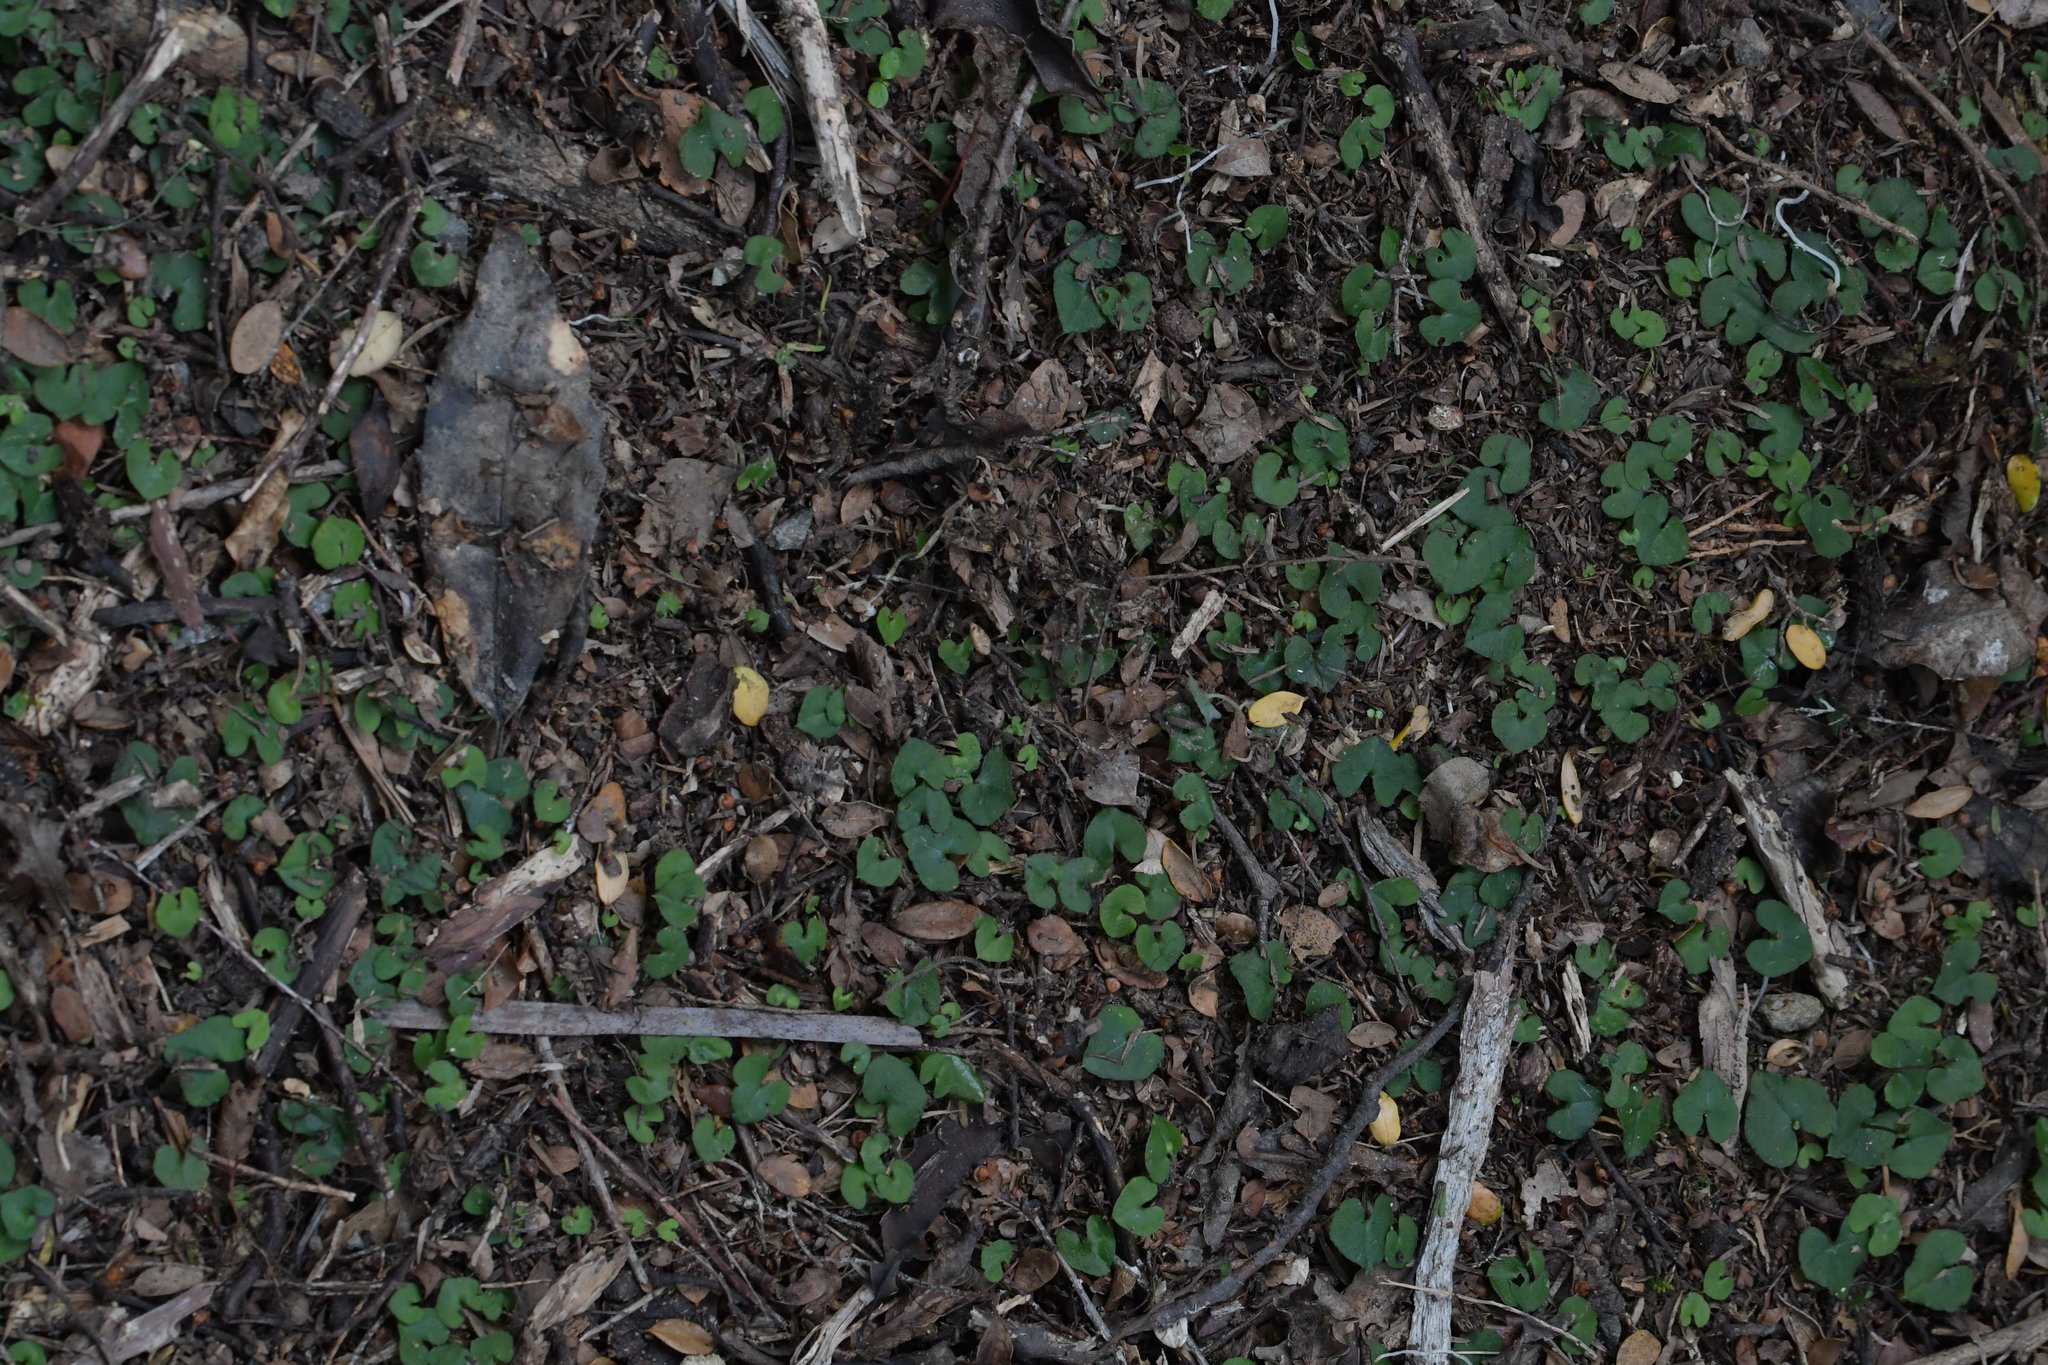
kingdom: Plantae
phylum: Tracheophyta
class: Liliopsida
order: Asparagales
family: Orchidaceae
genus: Acianthus
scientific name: Acianthus sinclairii
